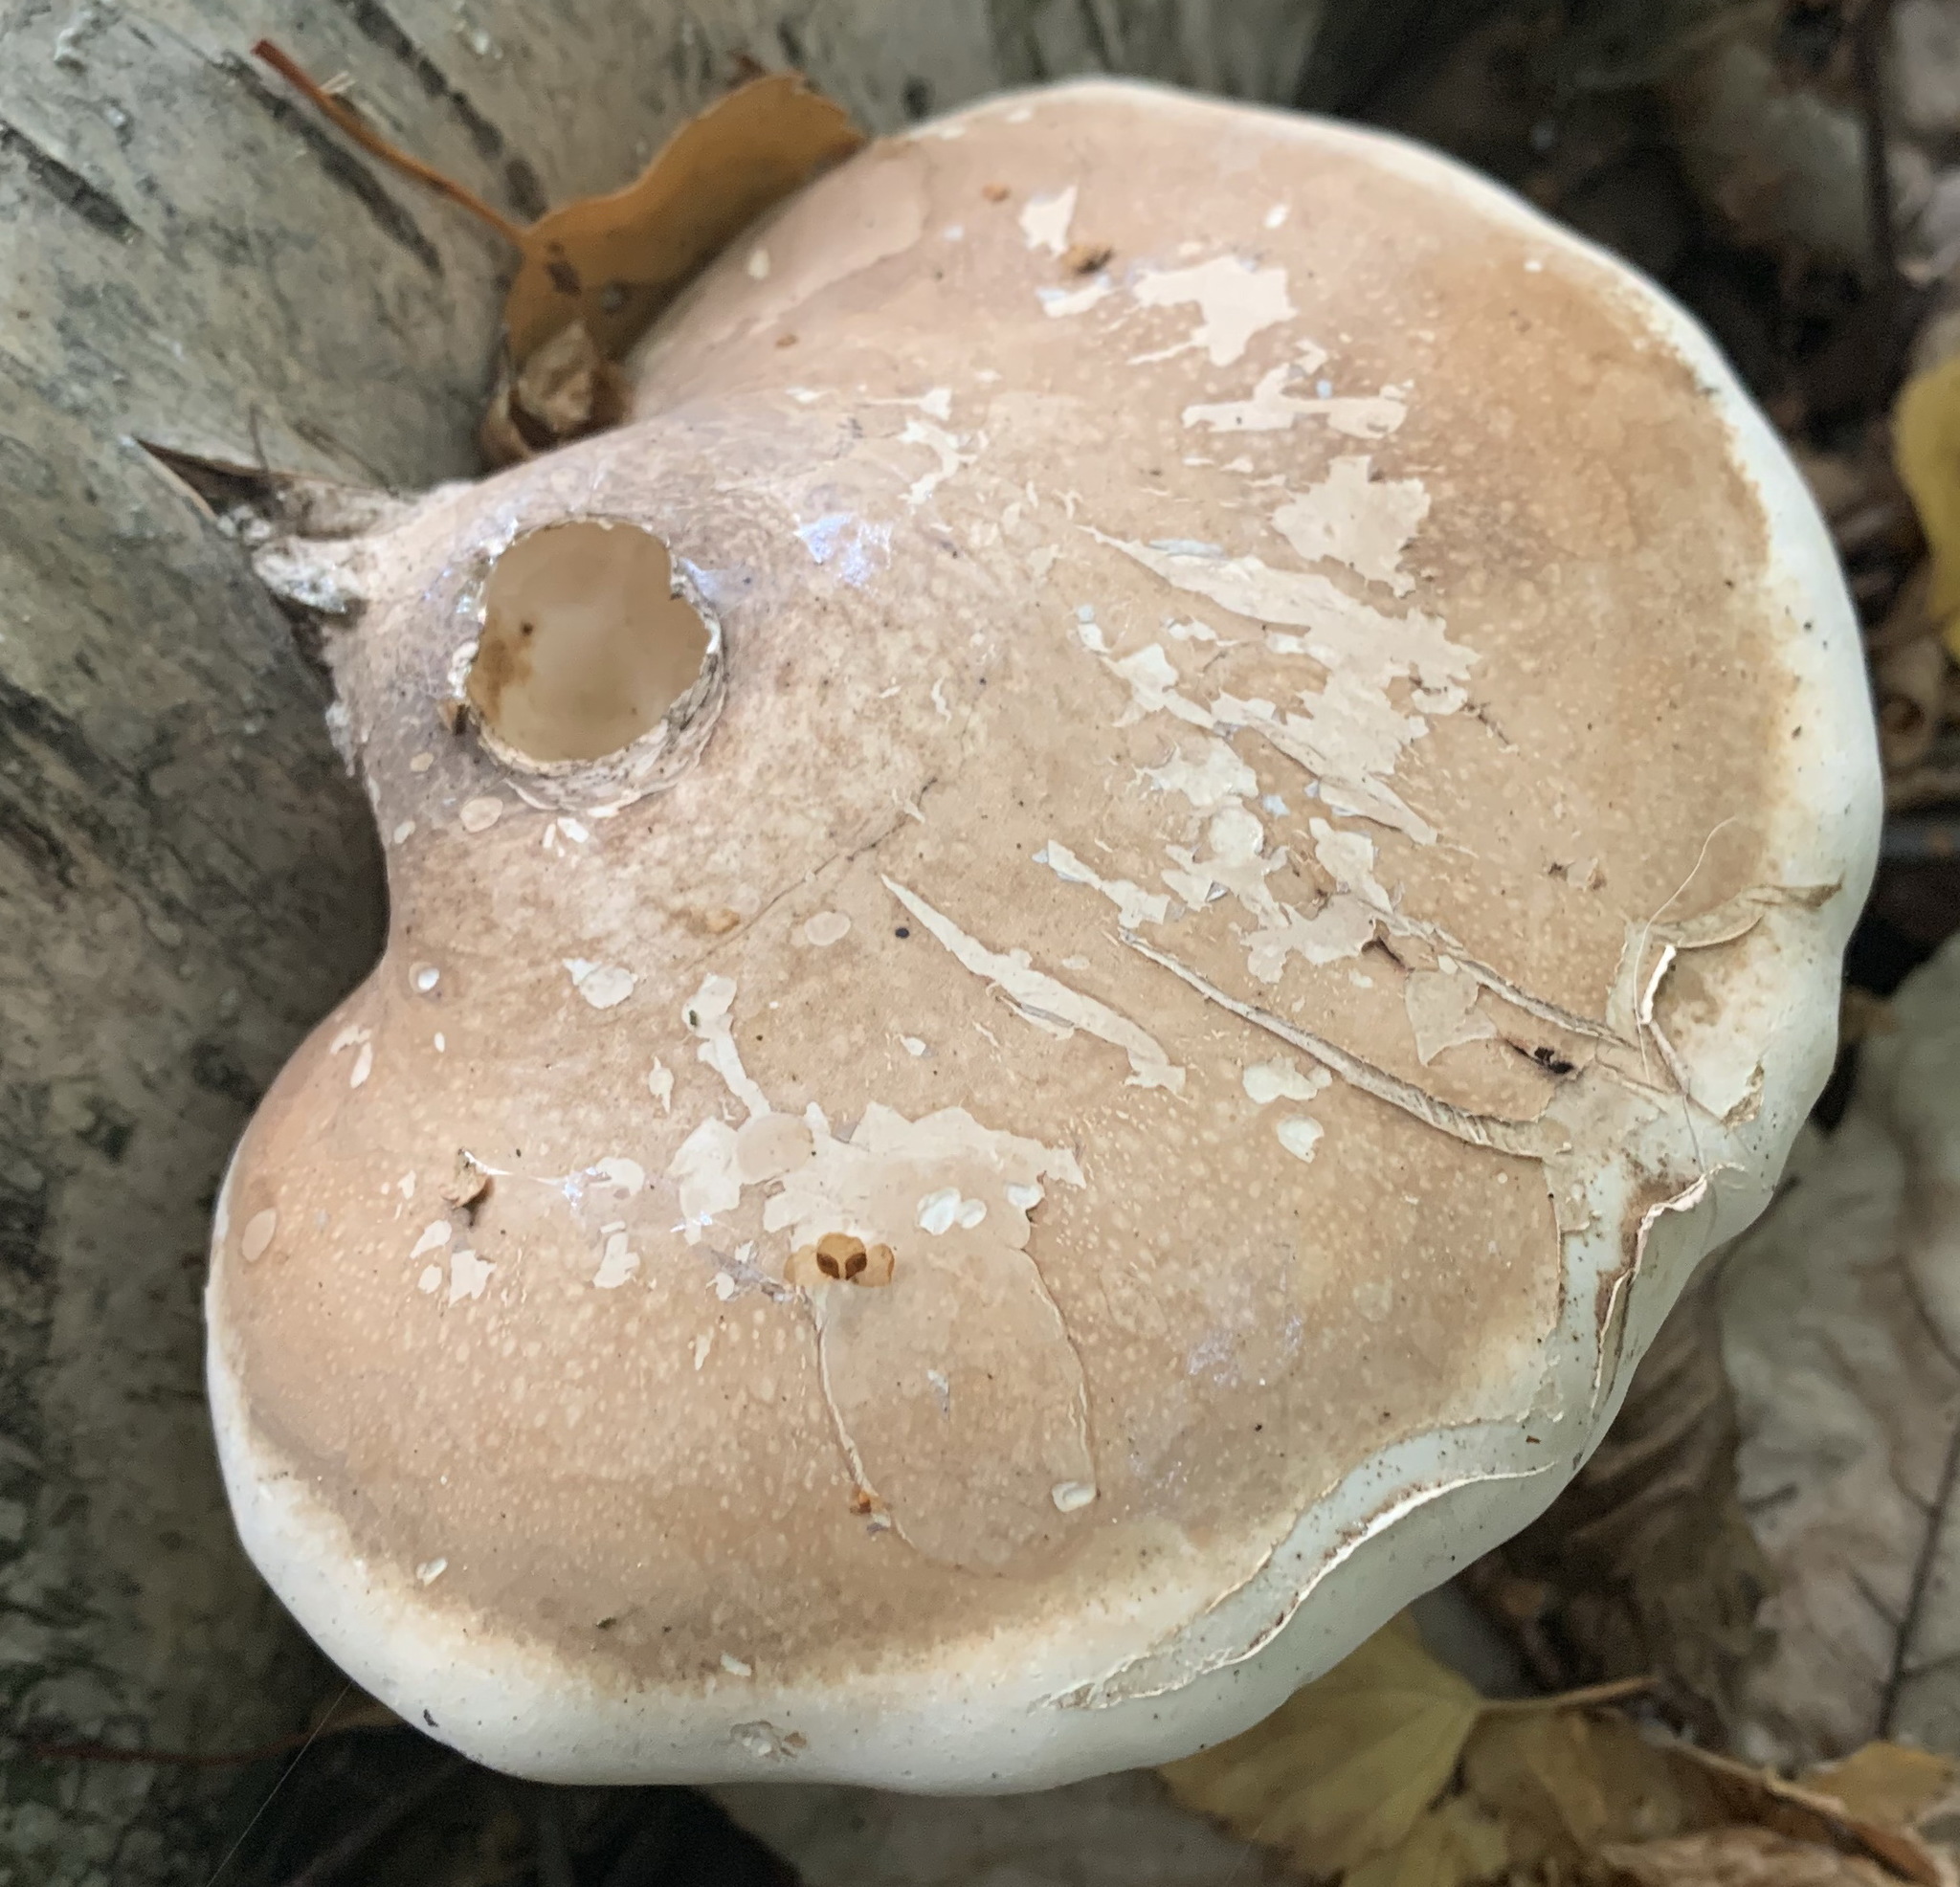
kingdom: Fungi
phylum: Basidiomycota
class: Agaricomycetes
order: Polyporales
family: Fomitopsidaceae
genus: Fomitopsis
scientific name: Fomitopsis betulina
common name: Birch polypore
